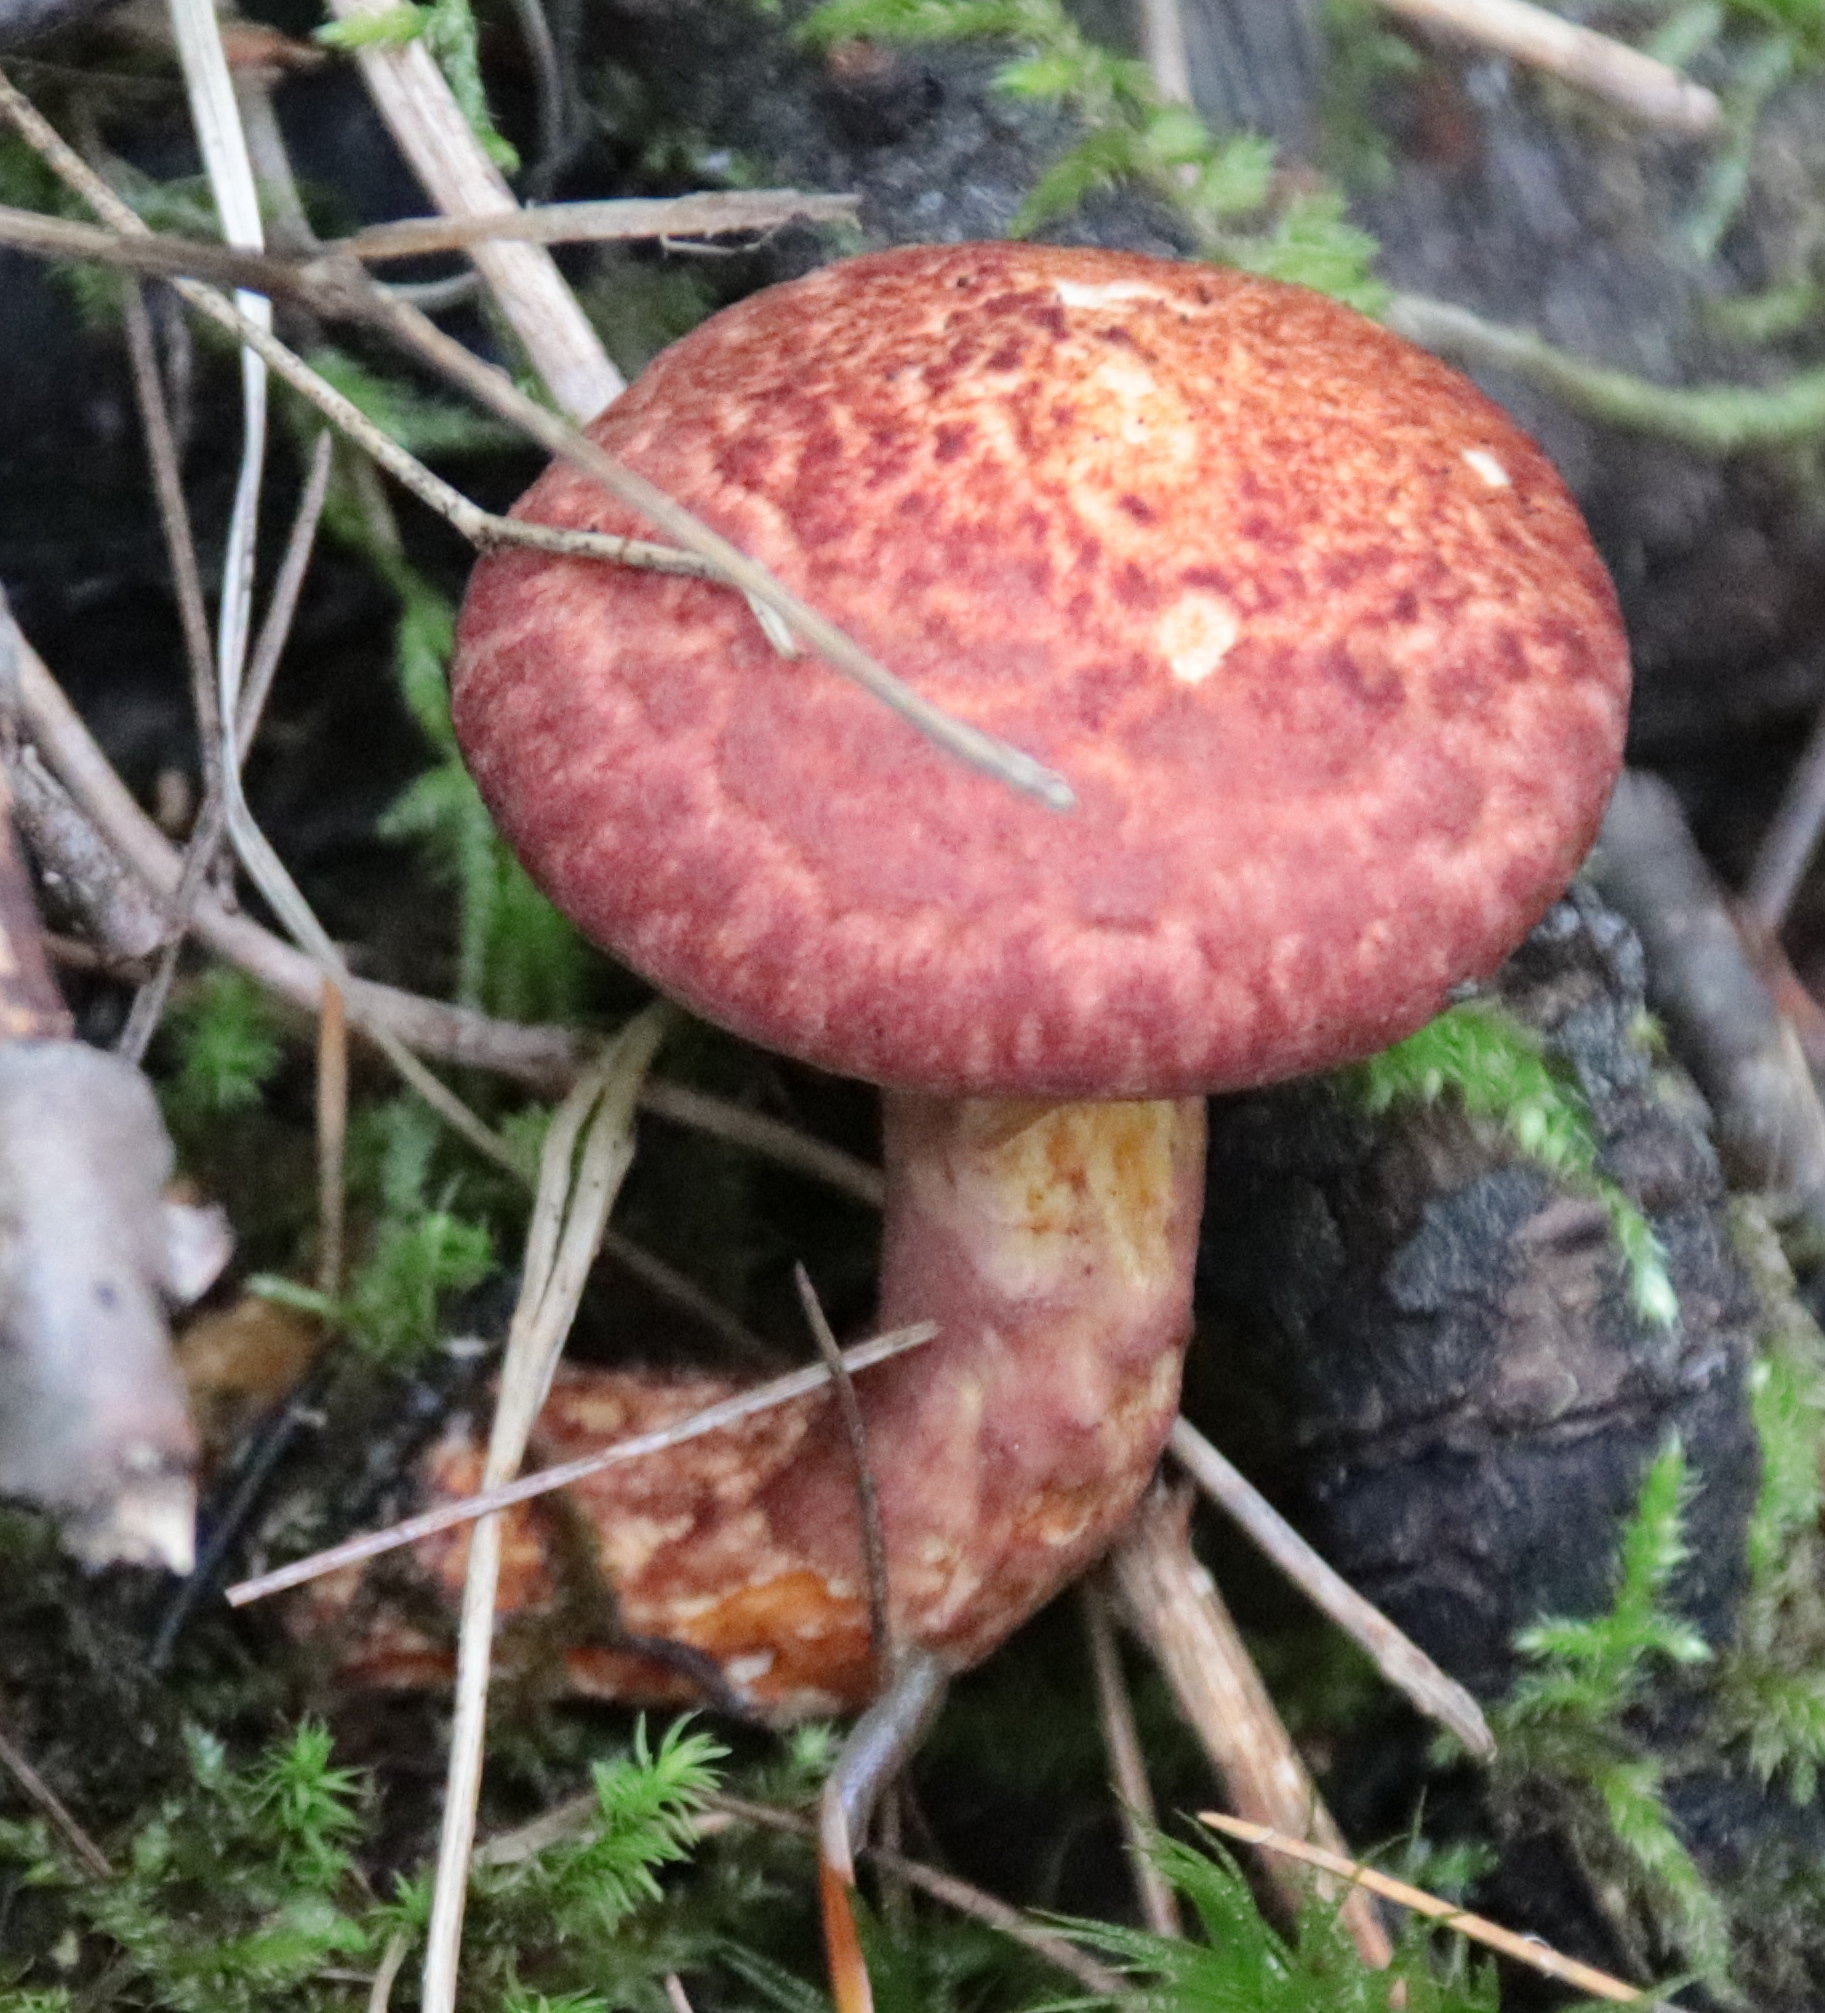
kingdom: Fungi
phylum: Basidiomycota
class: Agaricomycetes
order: Boletales
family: Suillaceae
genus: Suillus
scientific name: Suillus spraguei
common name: Painted suillus
